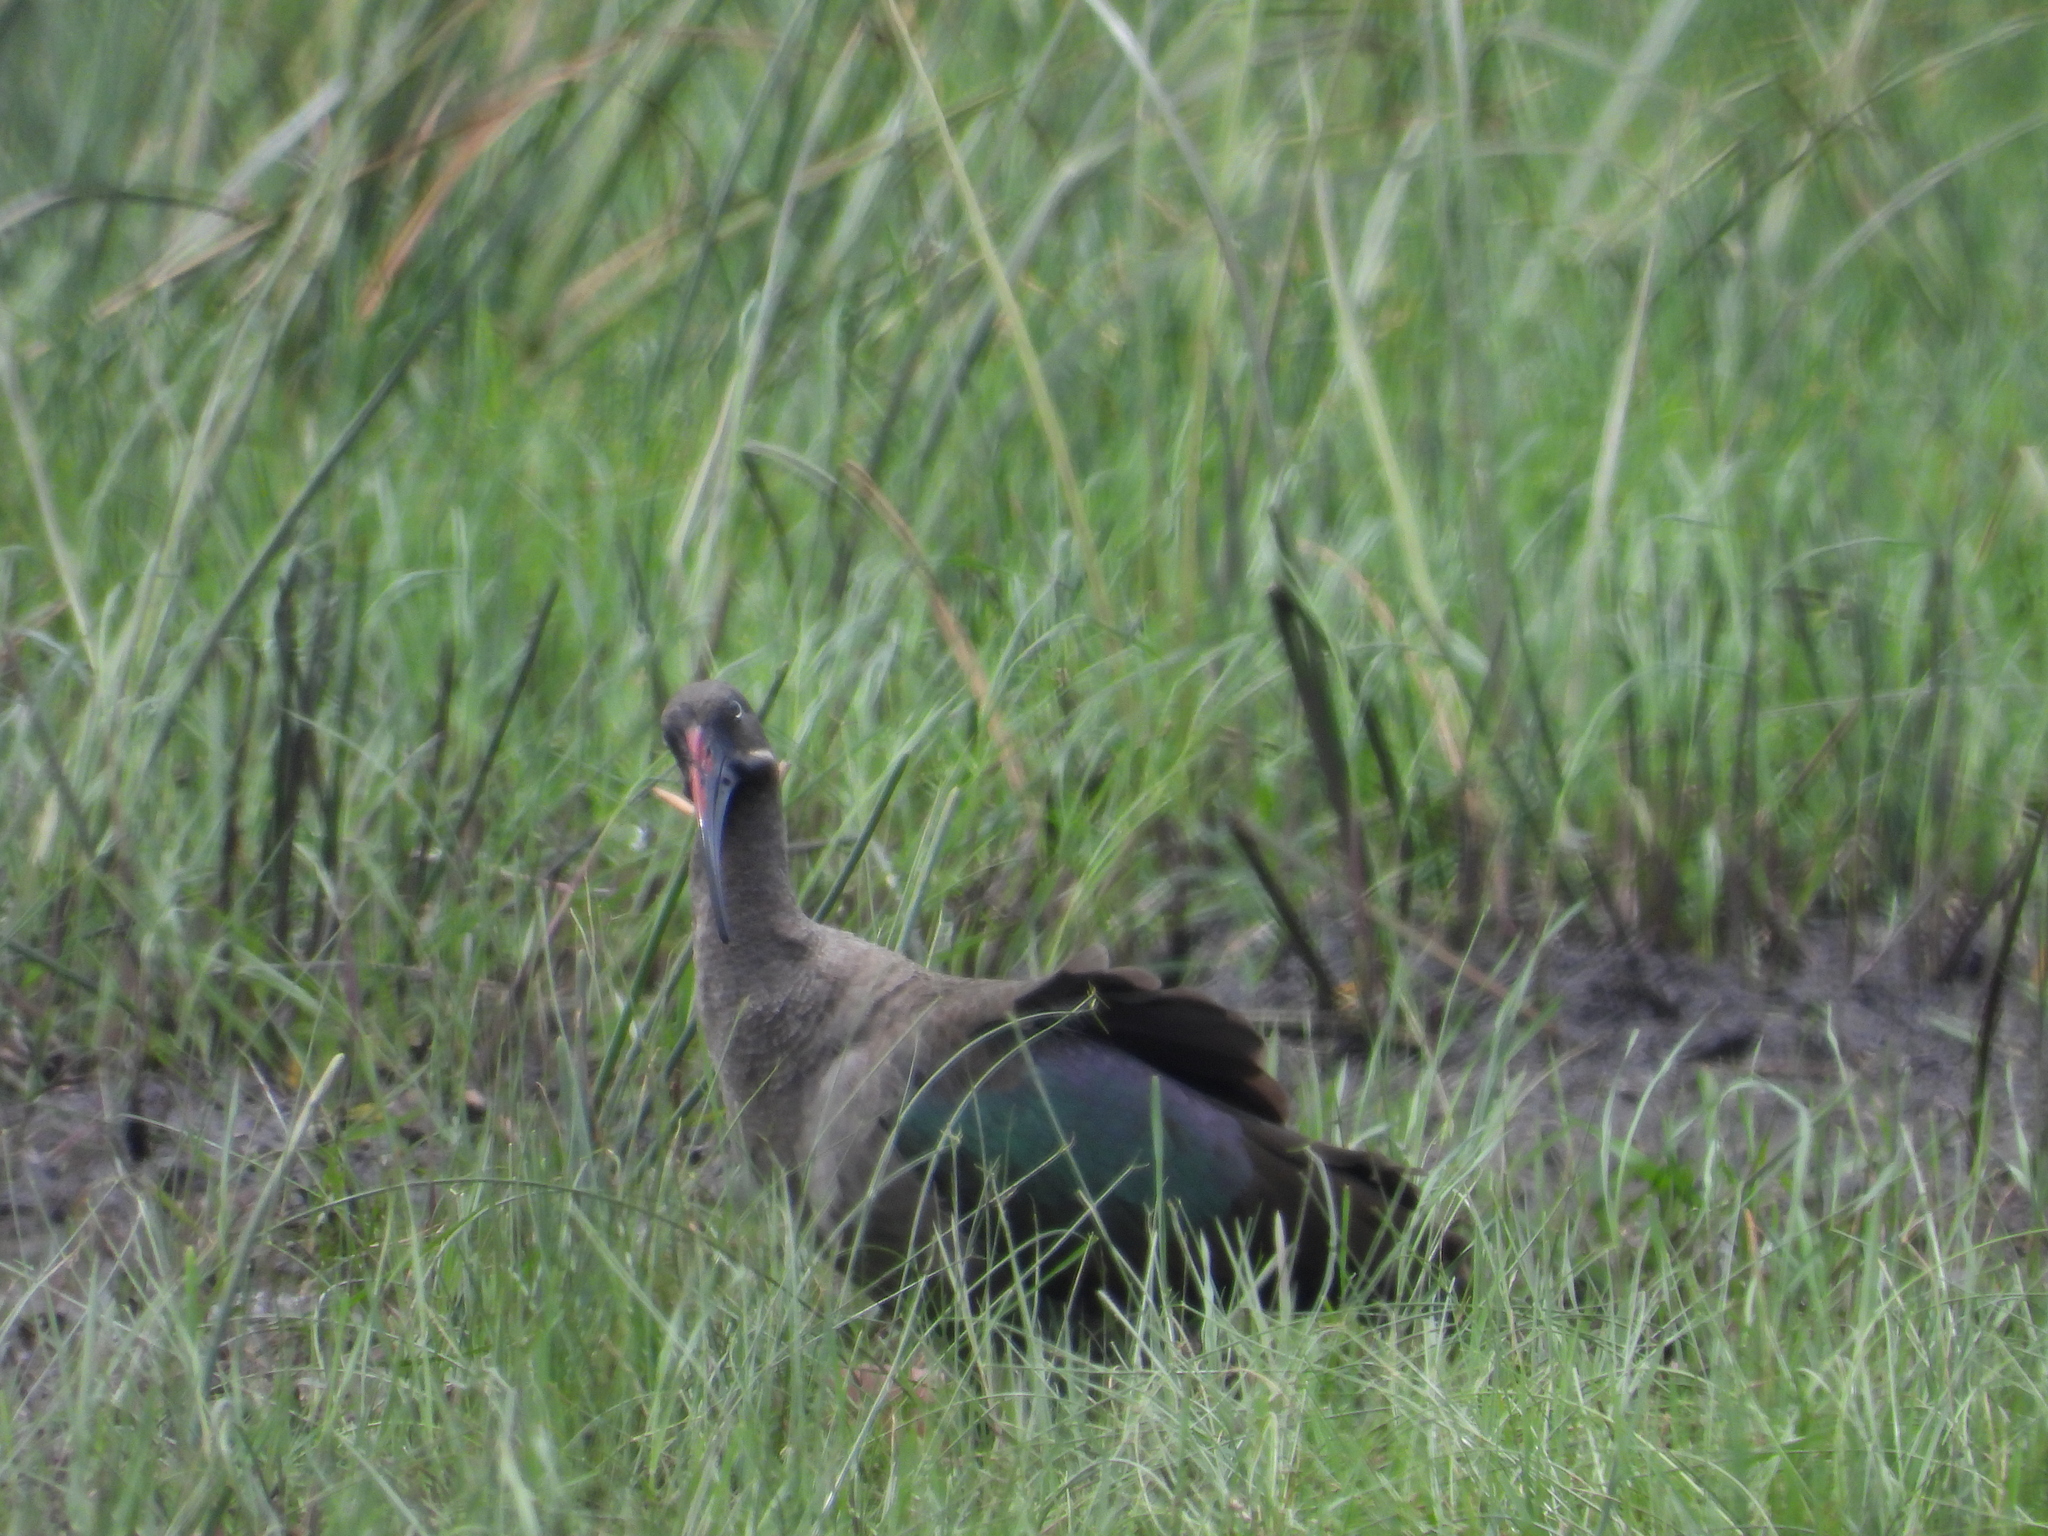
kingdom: Animalia
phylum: Chordata
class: Aves
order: Pelecaniformes
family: Threskiornithidae
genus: Bostrychia
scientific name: Bostrychia hagedash
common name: Hadada ibis
